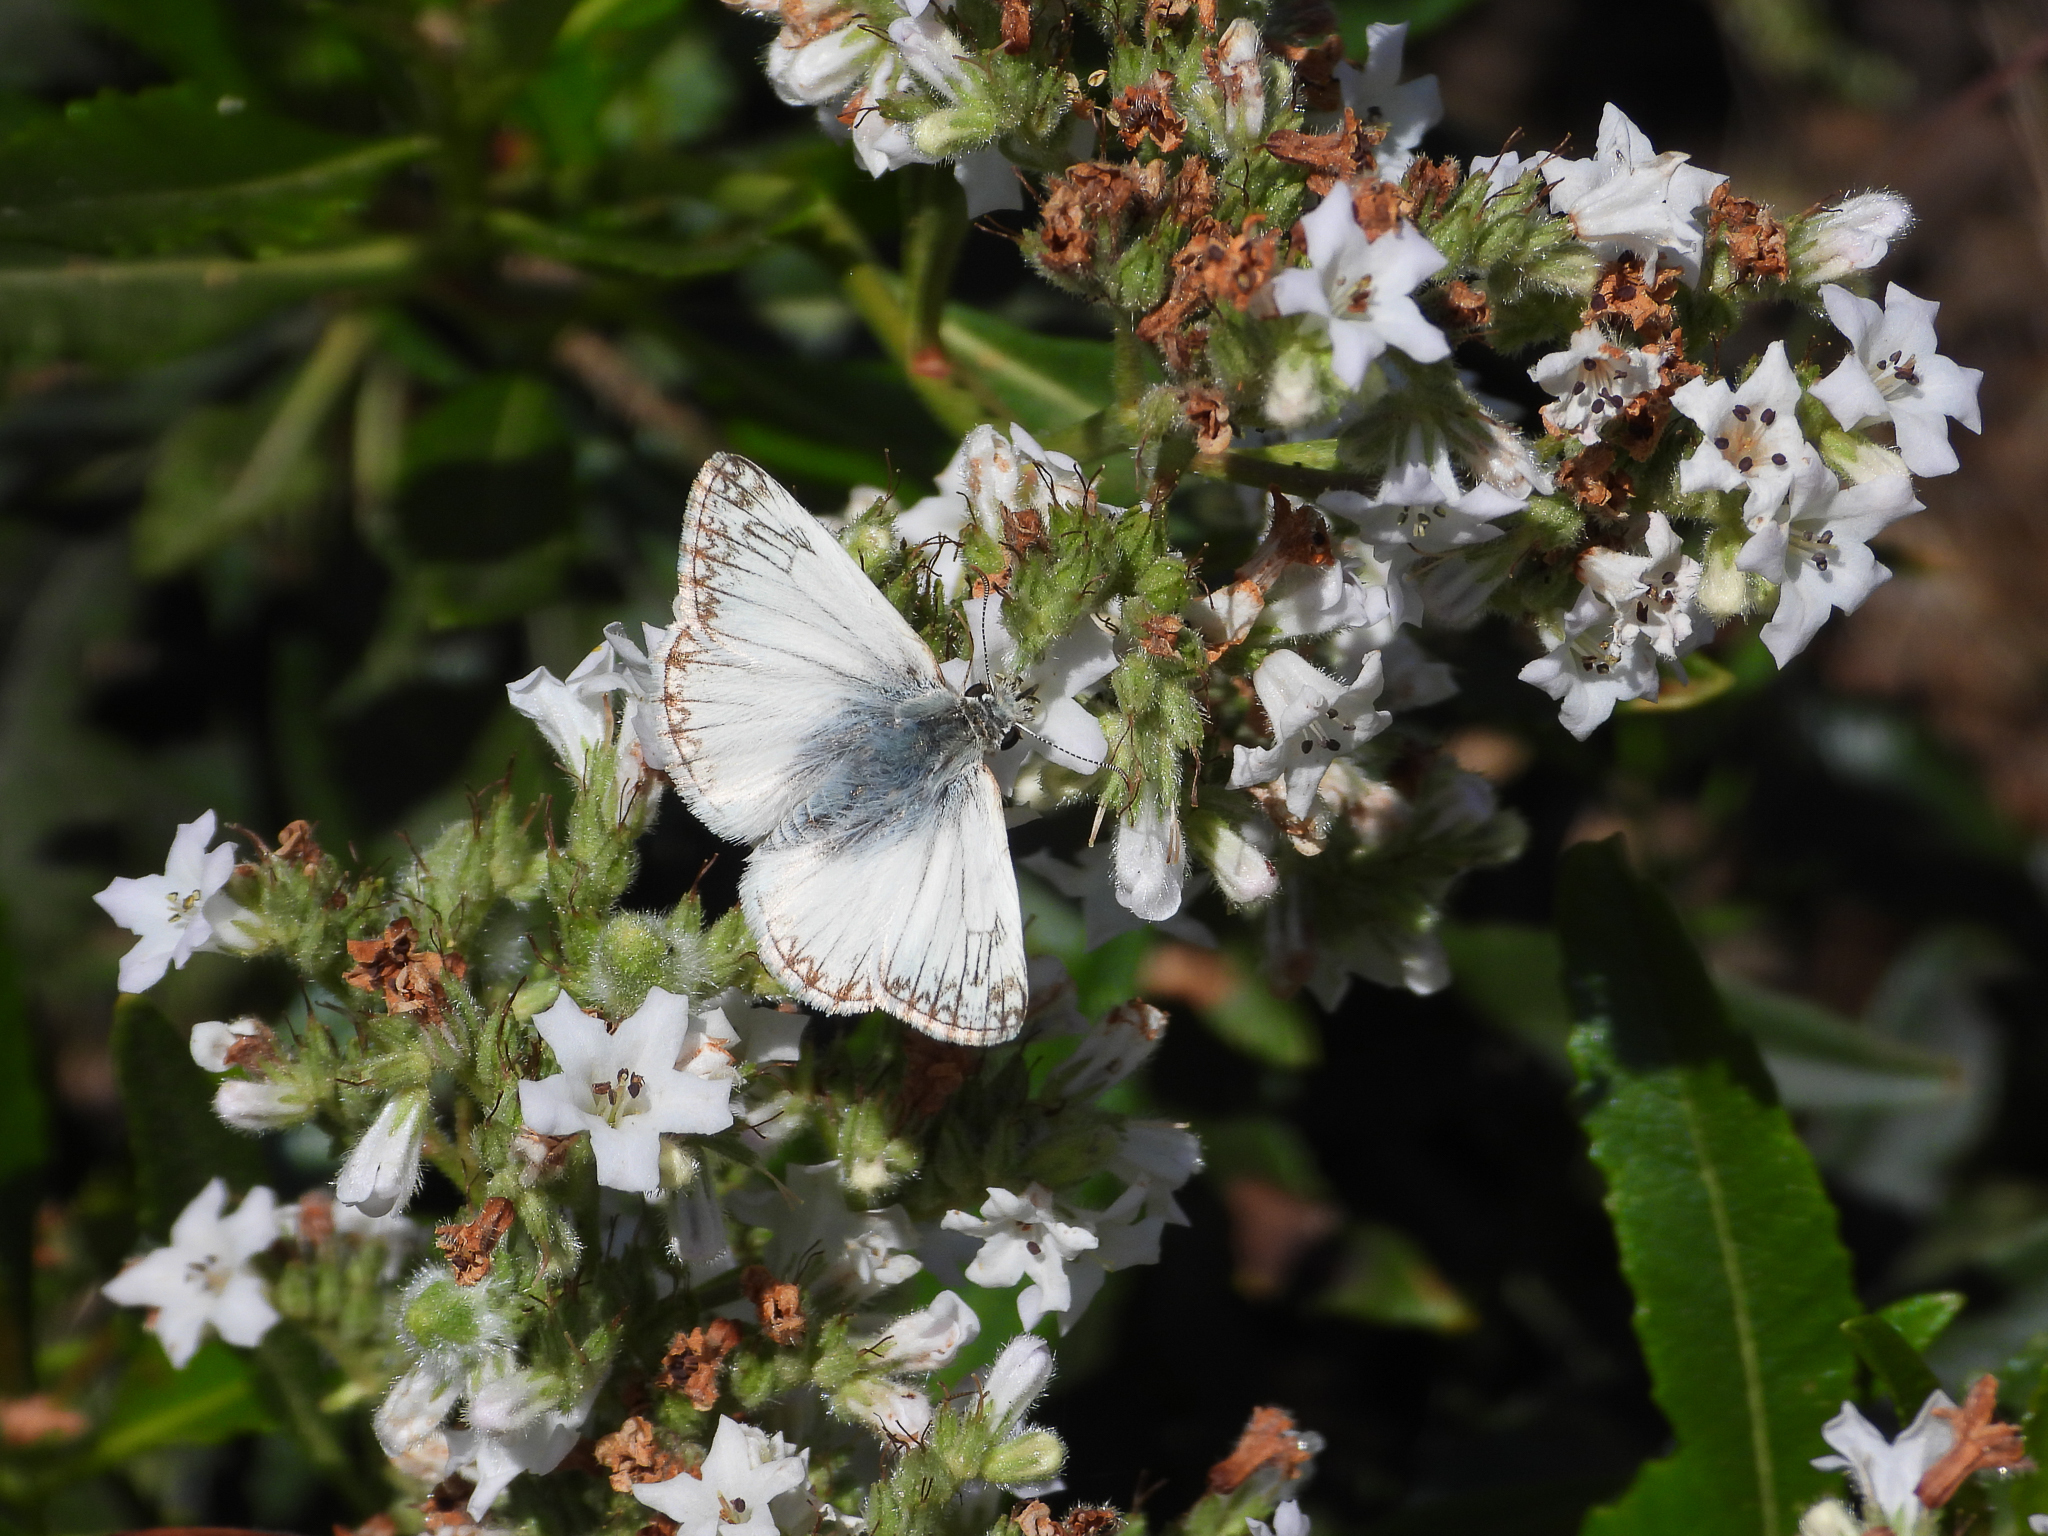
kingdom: Animalia
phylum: Arthropoda
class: Insecta
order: Lepidoptera
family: Hesperiidae
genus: Heliopetes
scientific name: Heliopetes ericetorum
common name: Northern white-skipper
